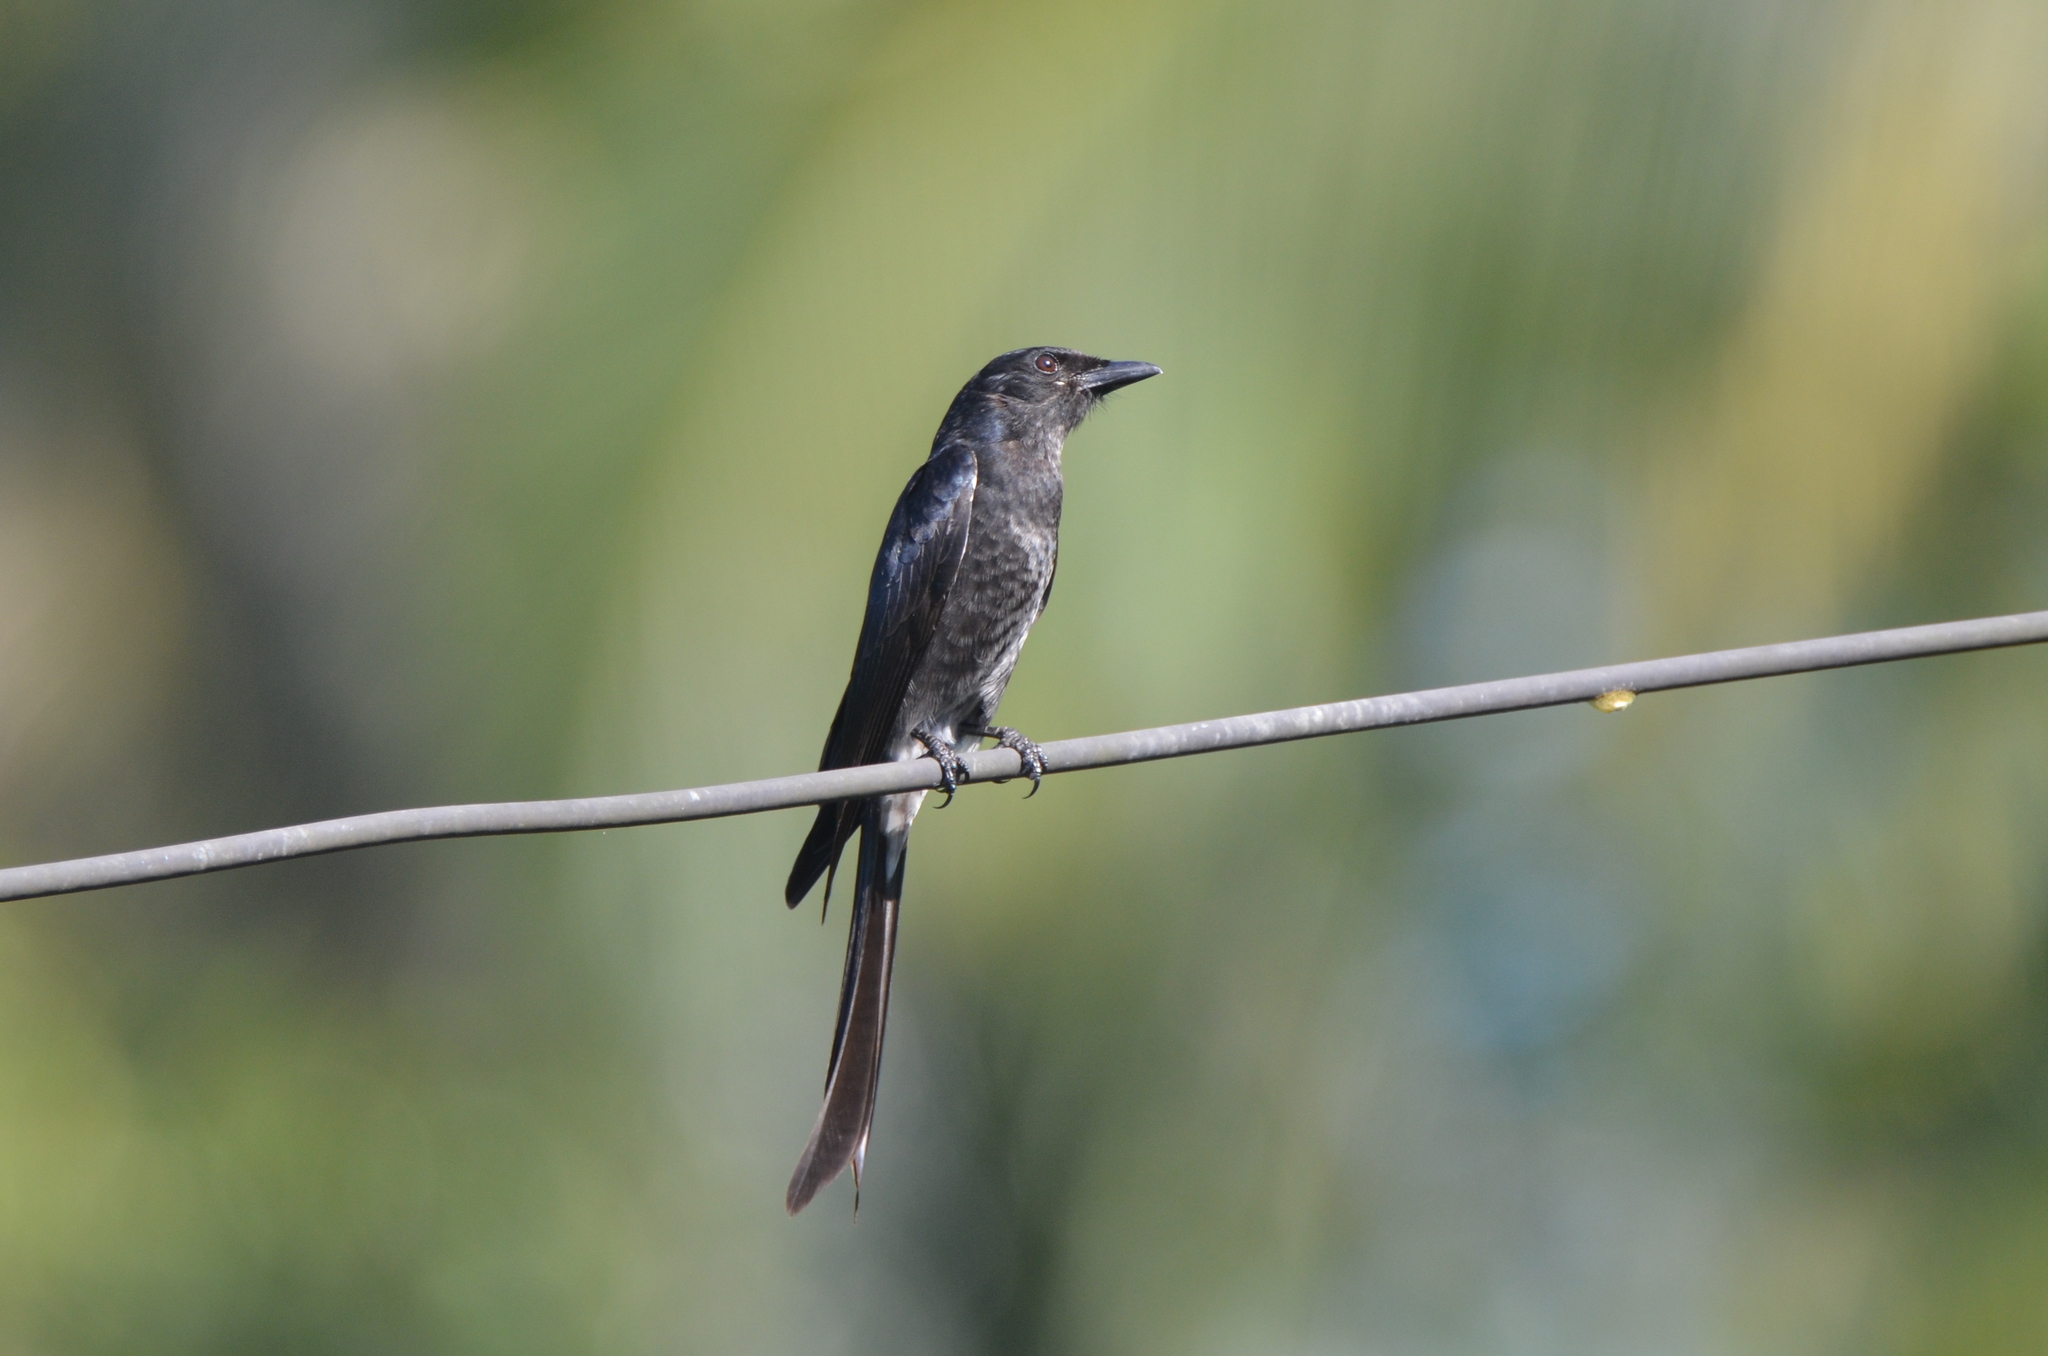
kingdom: Animalia
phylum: Chordata
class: Aves
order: Passeriformes
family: Dicruridae
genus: Dicrurus
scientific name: Dicrurus macrocercus
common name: Black drongo
